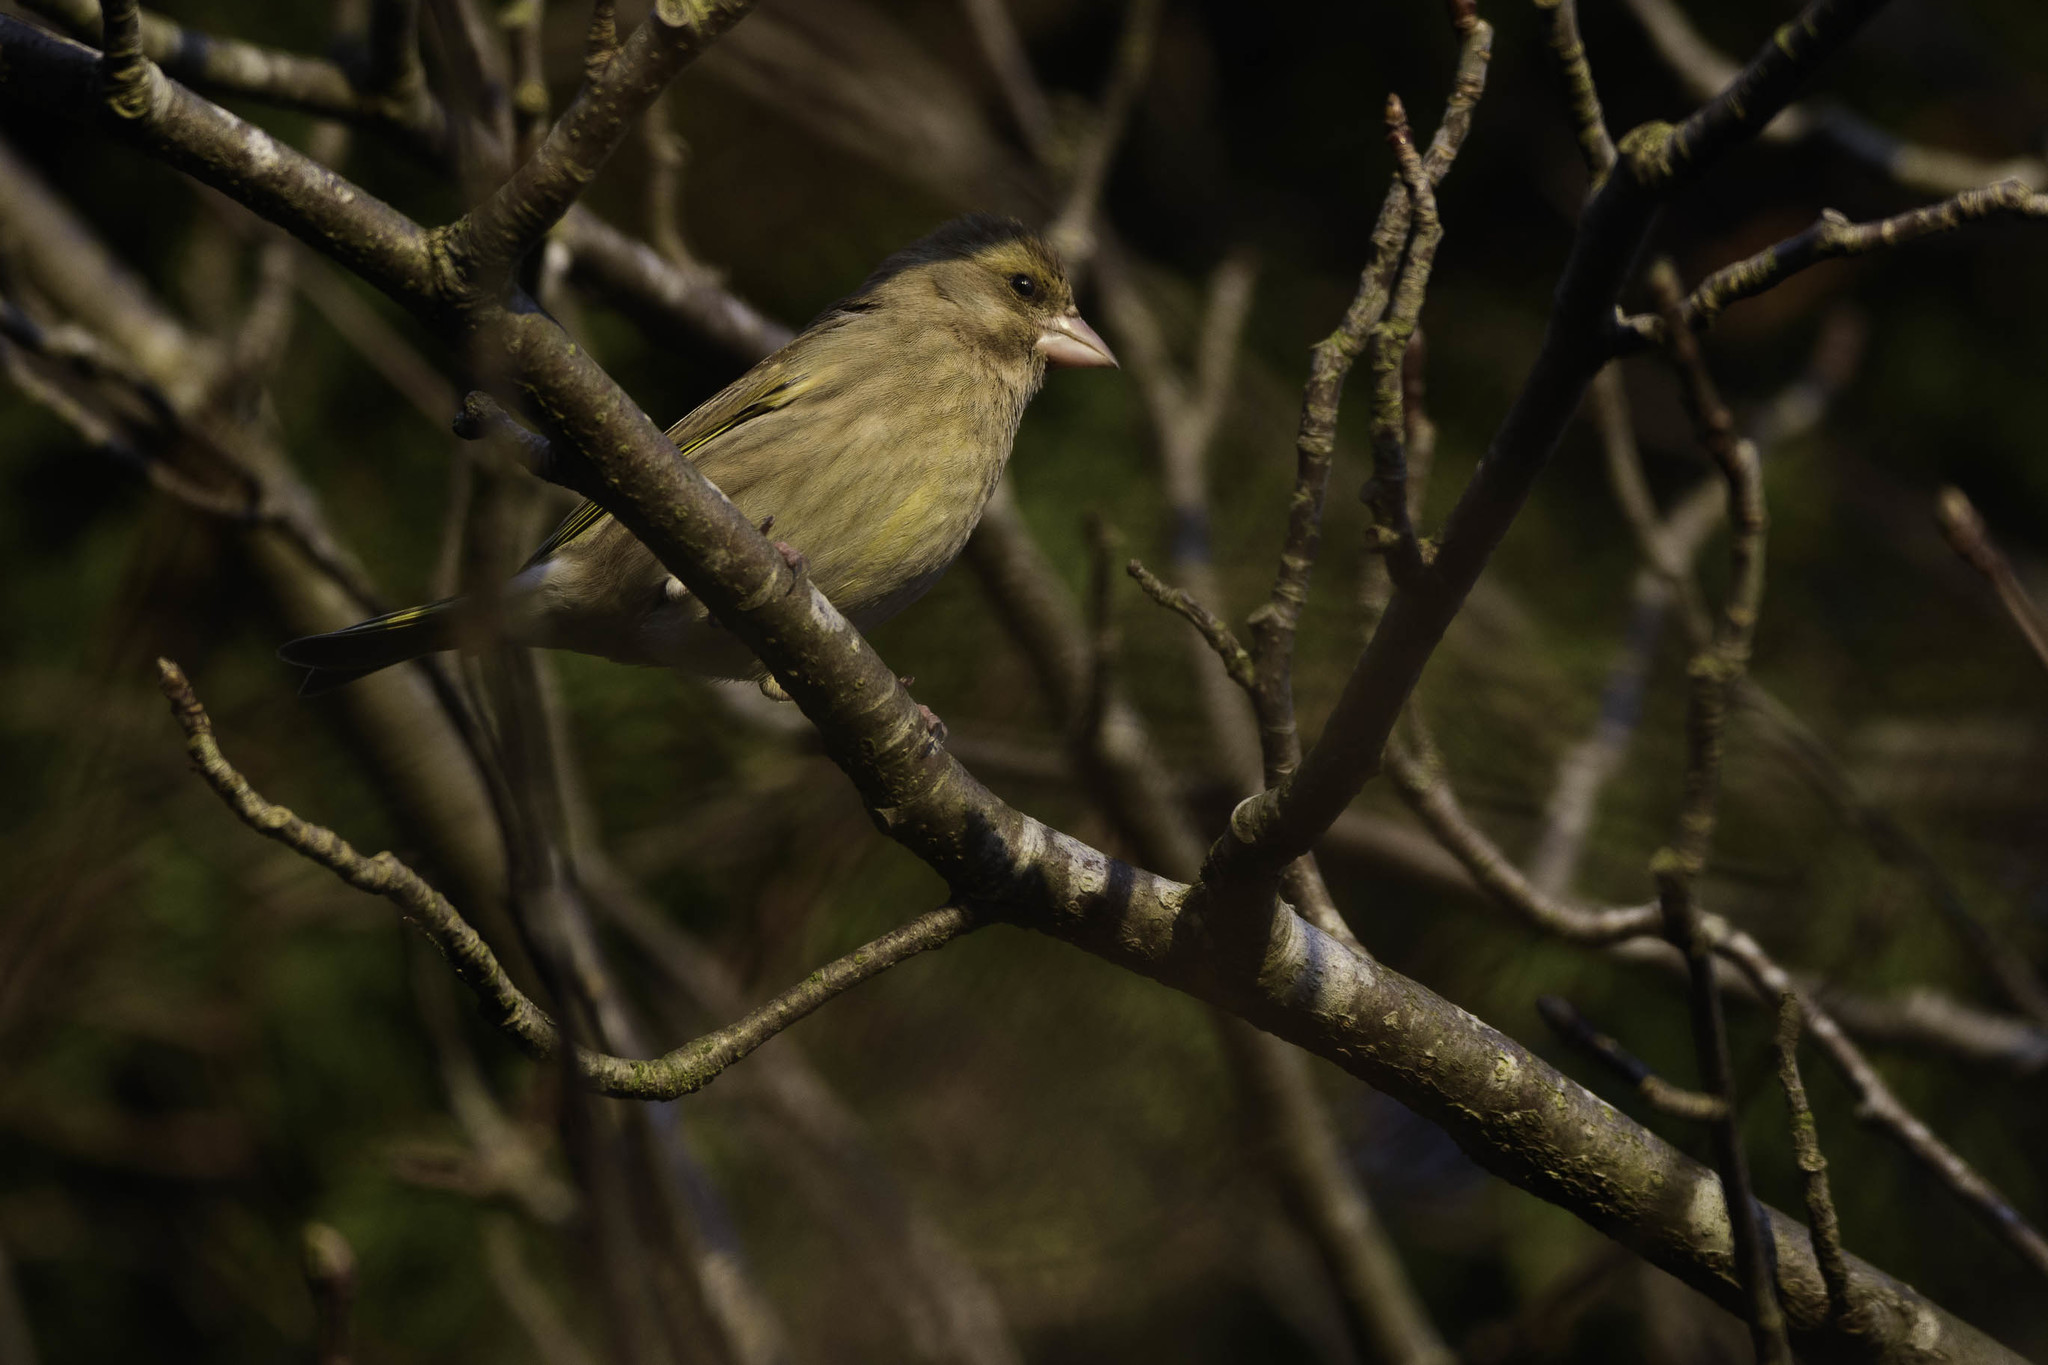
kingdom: Plantae
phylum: Tracheophyta
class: Liliopsida
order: Poales
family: Poaceae
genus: Chloris
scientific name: Chloris chloris
